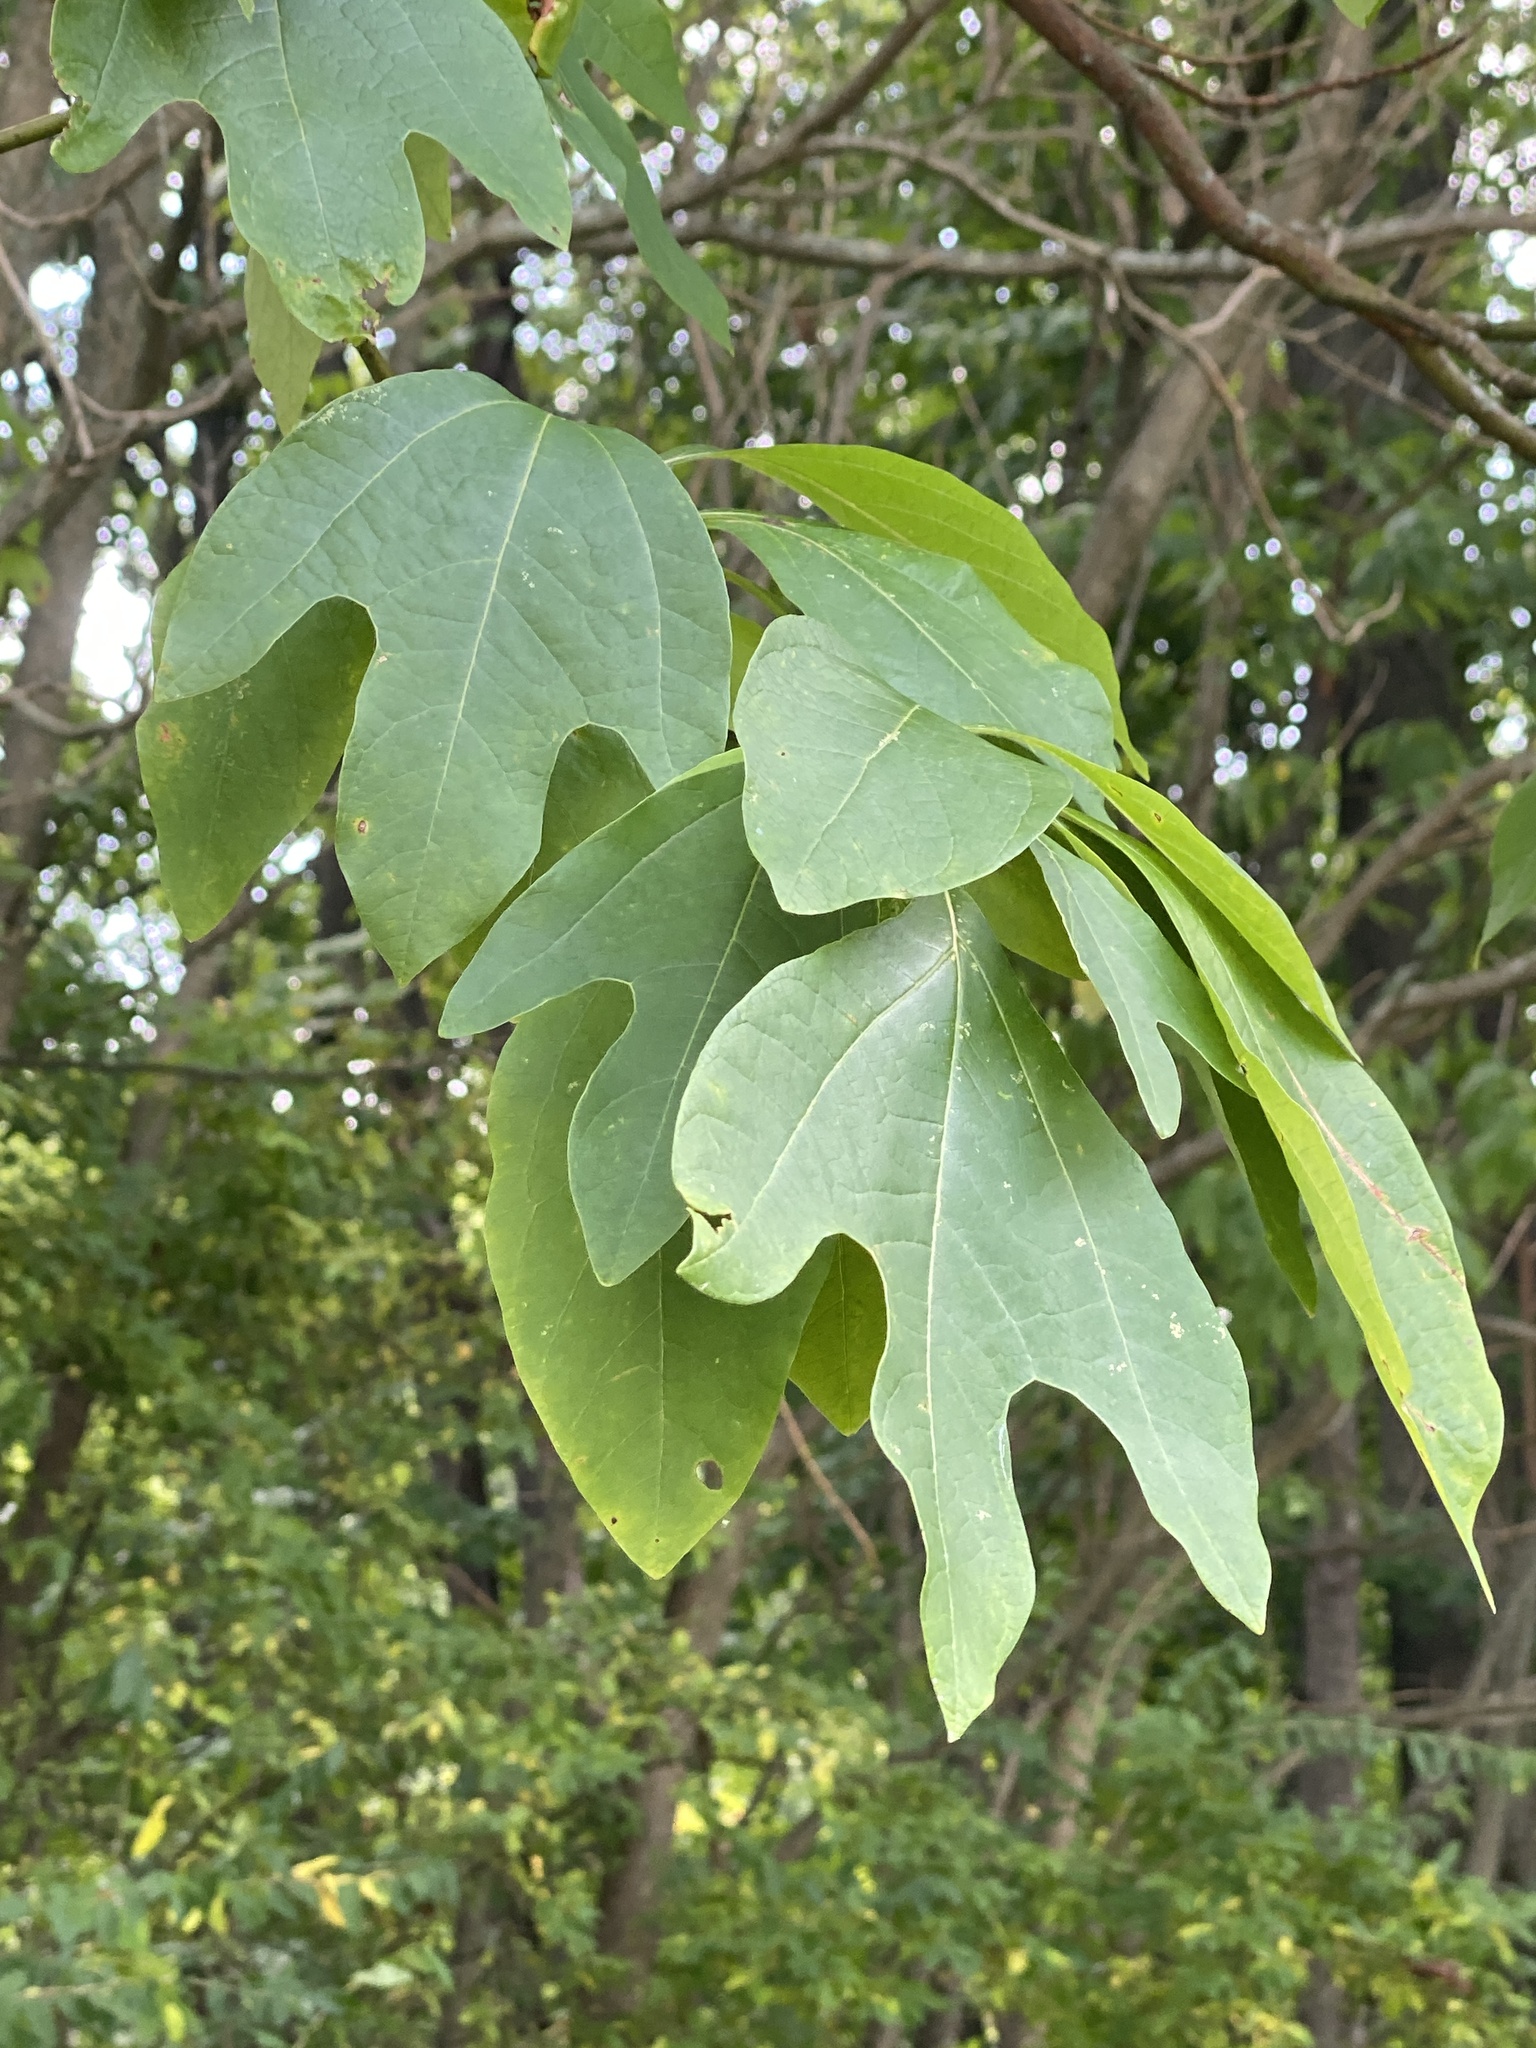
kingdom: Plantae
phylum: Tracheophyta
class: Magnoliopsida
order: Laurales
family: Lauraceae
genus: Sassafras
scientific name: Sassafras albidum
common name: Sassafras
